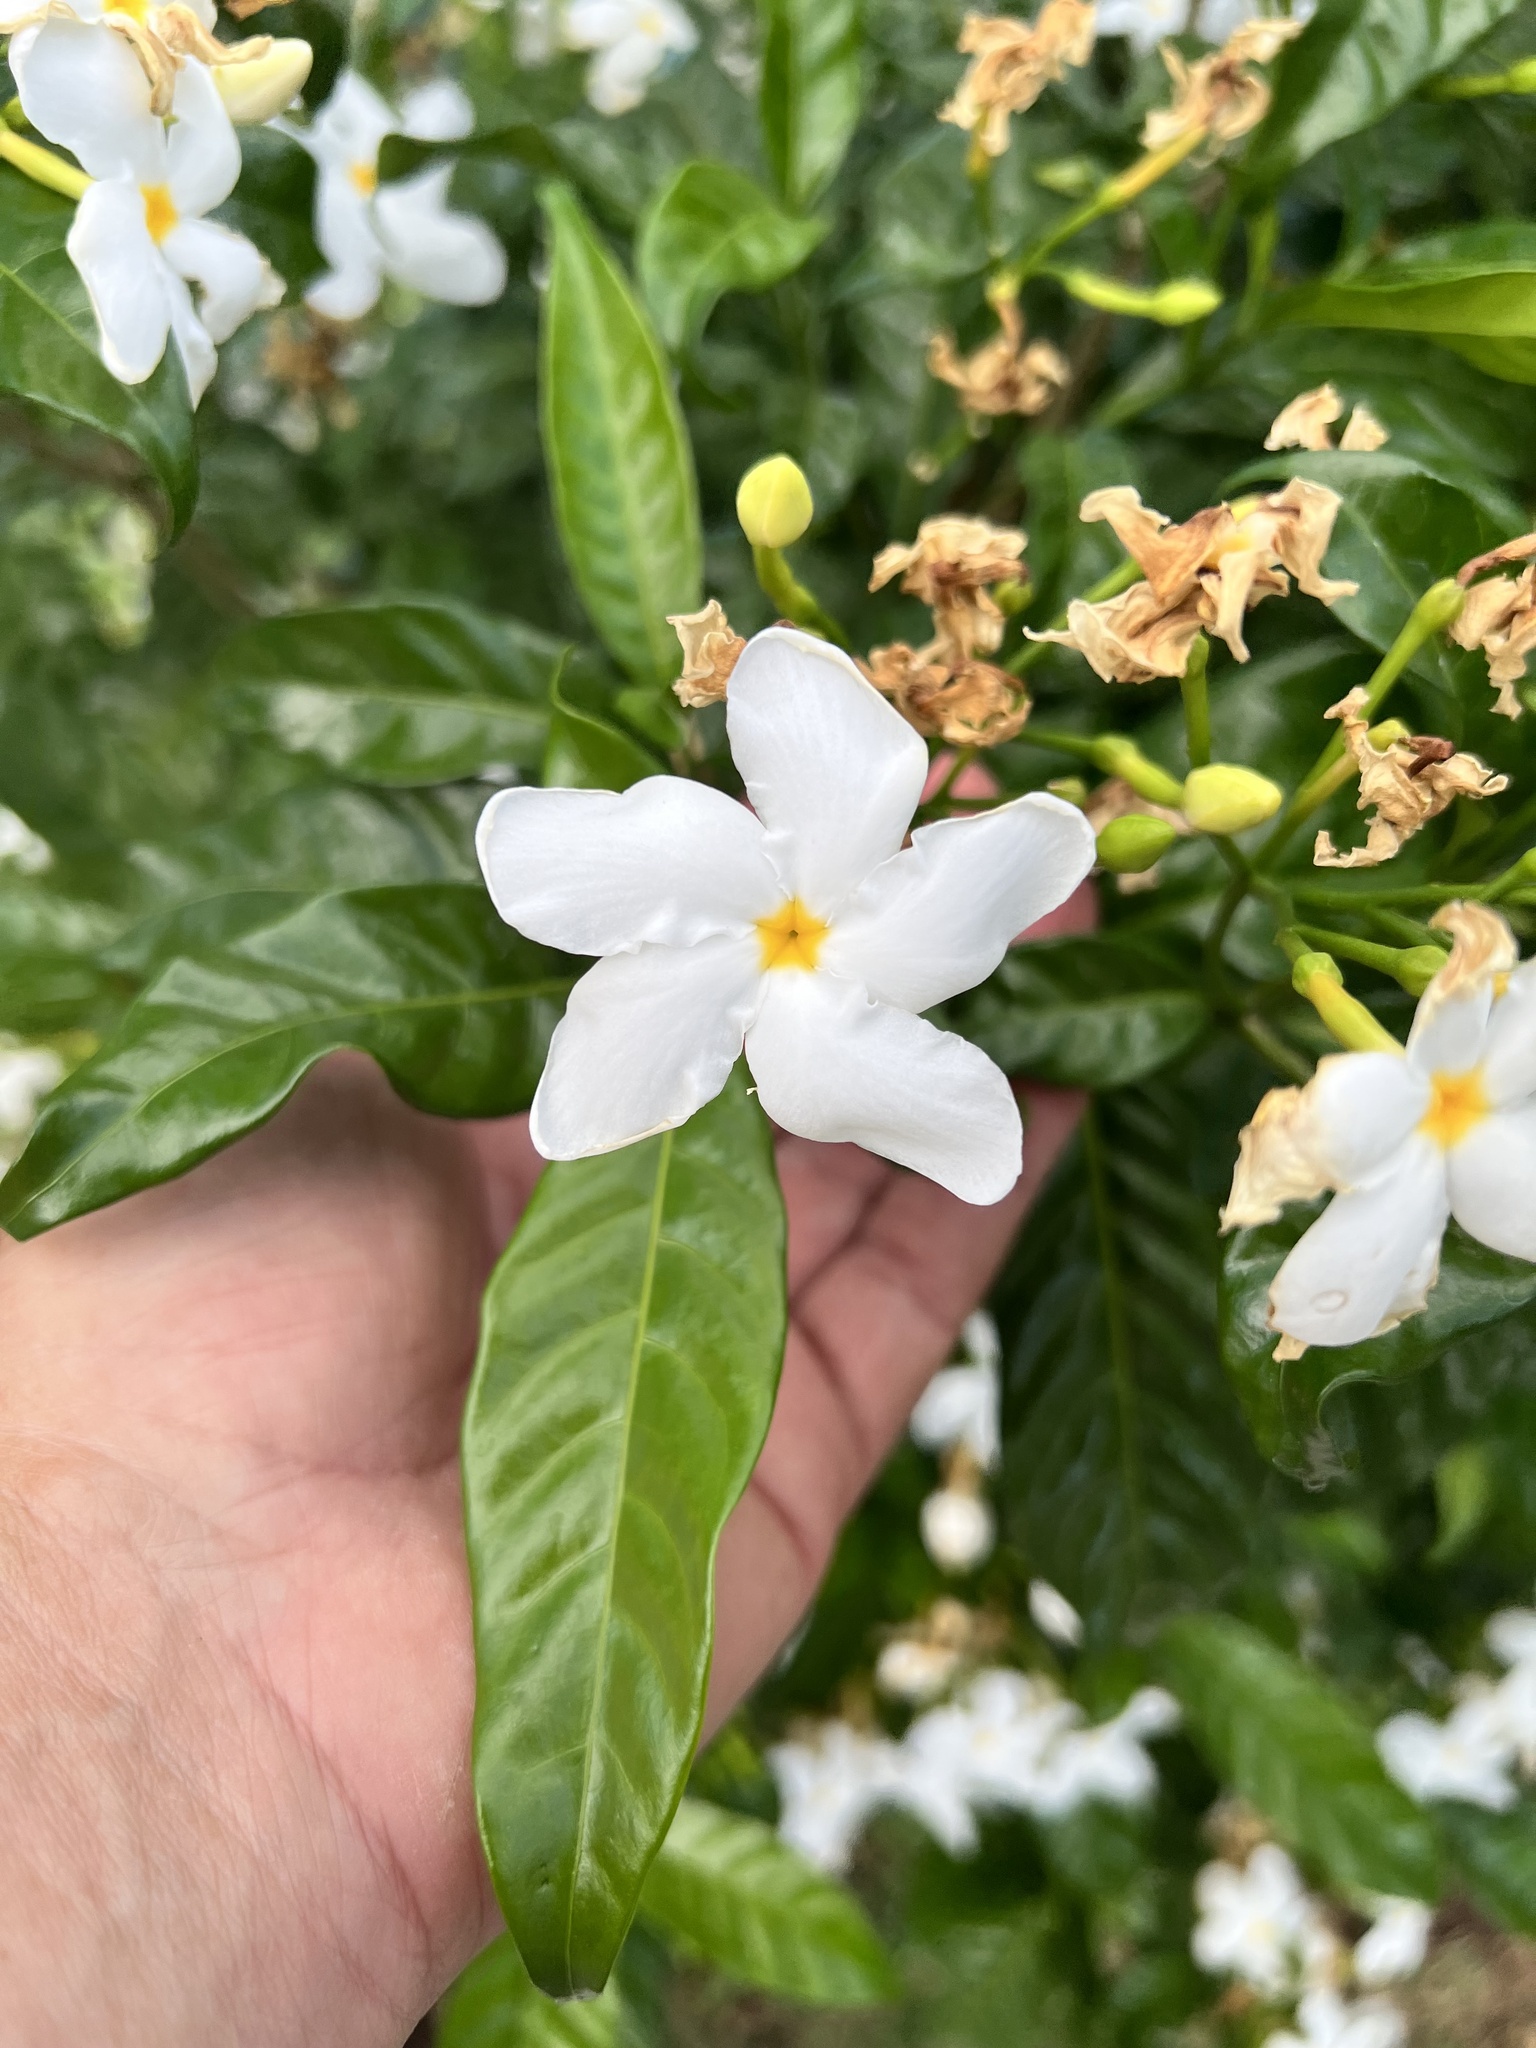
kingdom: Plantae
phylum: Tracheophyta
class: Magnoliopsida
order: Gentianales
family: Apocynaceae
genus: Tabernaemontana
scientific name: Tabernaemontana divaricata
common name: Pinwheelflower
